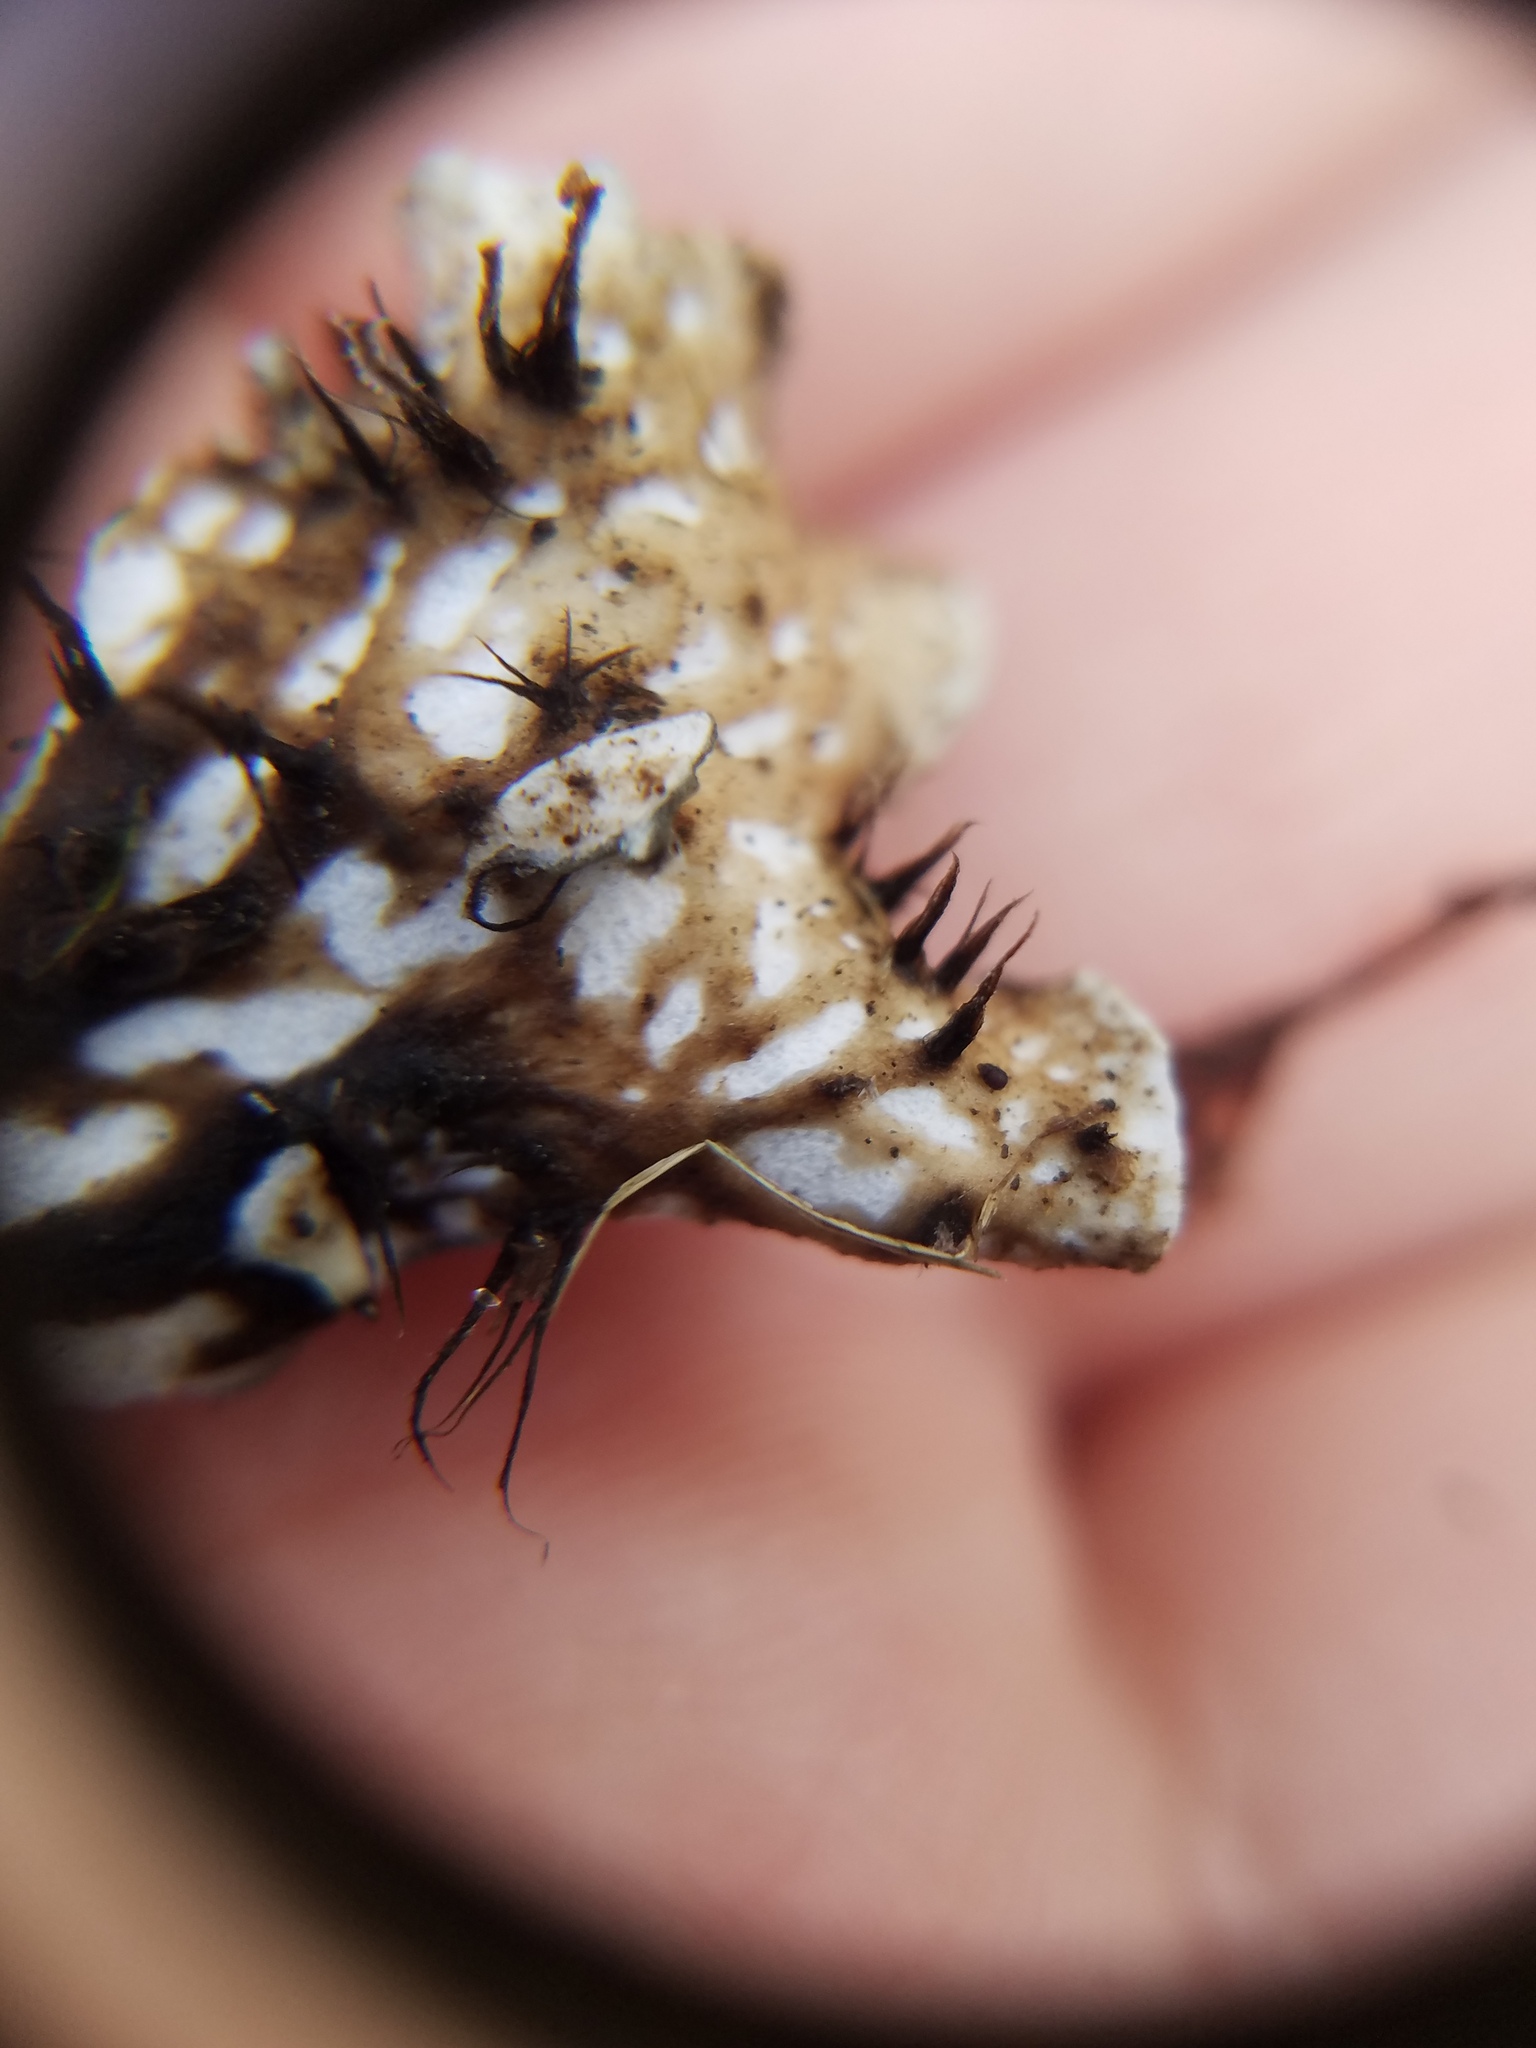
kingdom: Fungi
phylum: Ascomycota
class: Lecanoromycetes
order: Peltigerales
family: Peltigeraceae
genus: Peltigera
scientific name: Peltigera polydactylon
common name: Many-fruited pelt lichen
